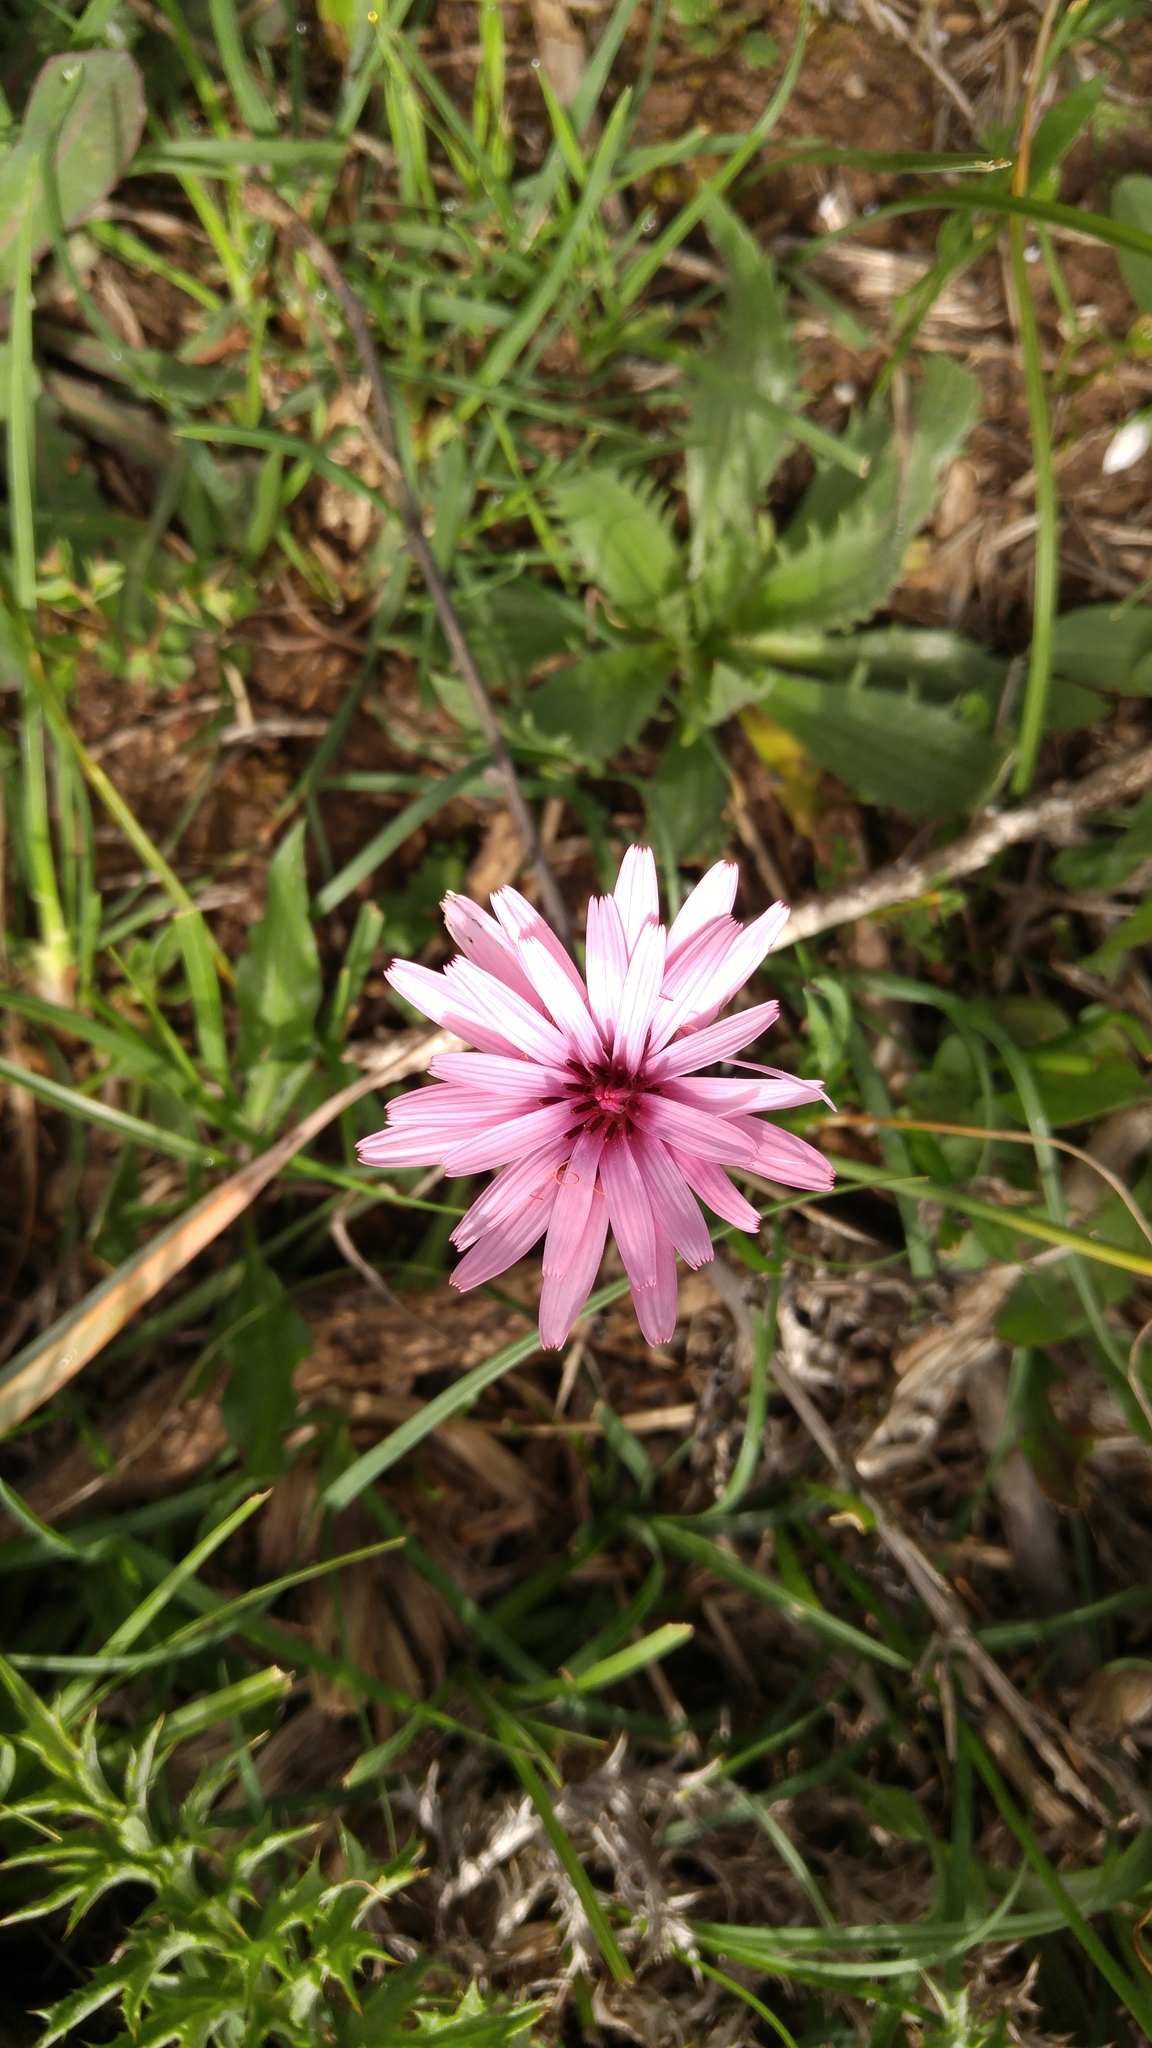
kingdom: Plantae
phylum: Tracheophyta
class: Magnoliopsida
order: Asterales
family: Asteraceae
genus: Pseudopodospermum
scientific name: Pseudopodospermum undulatum
